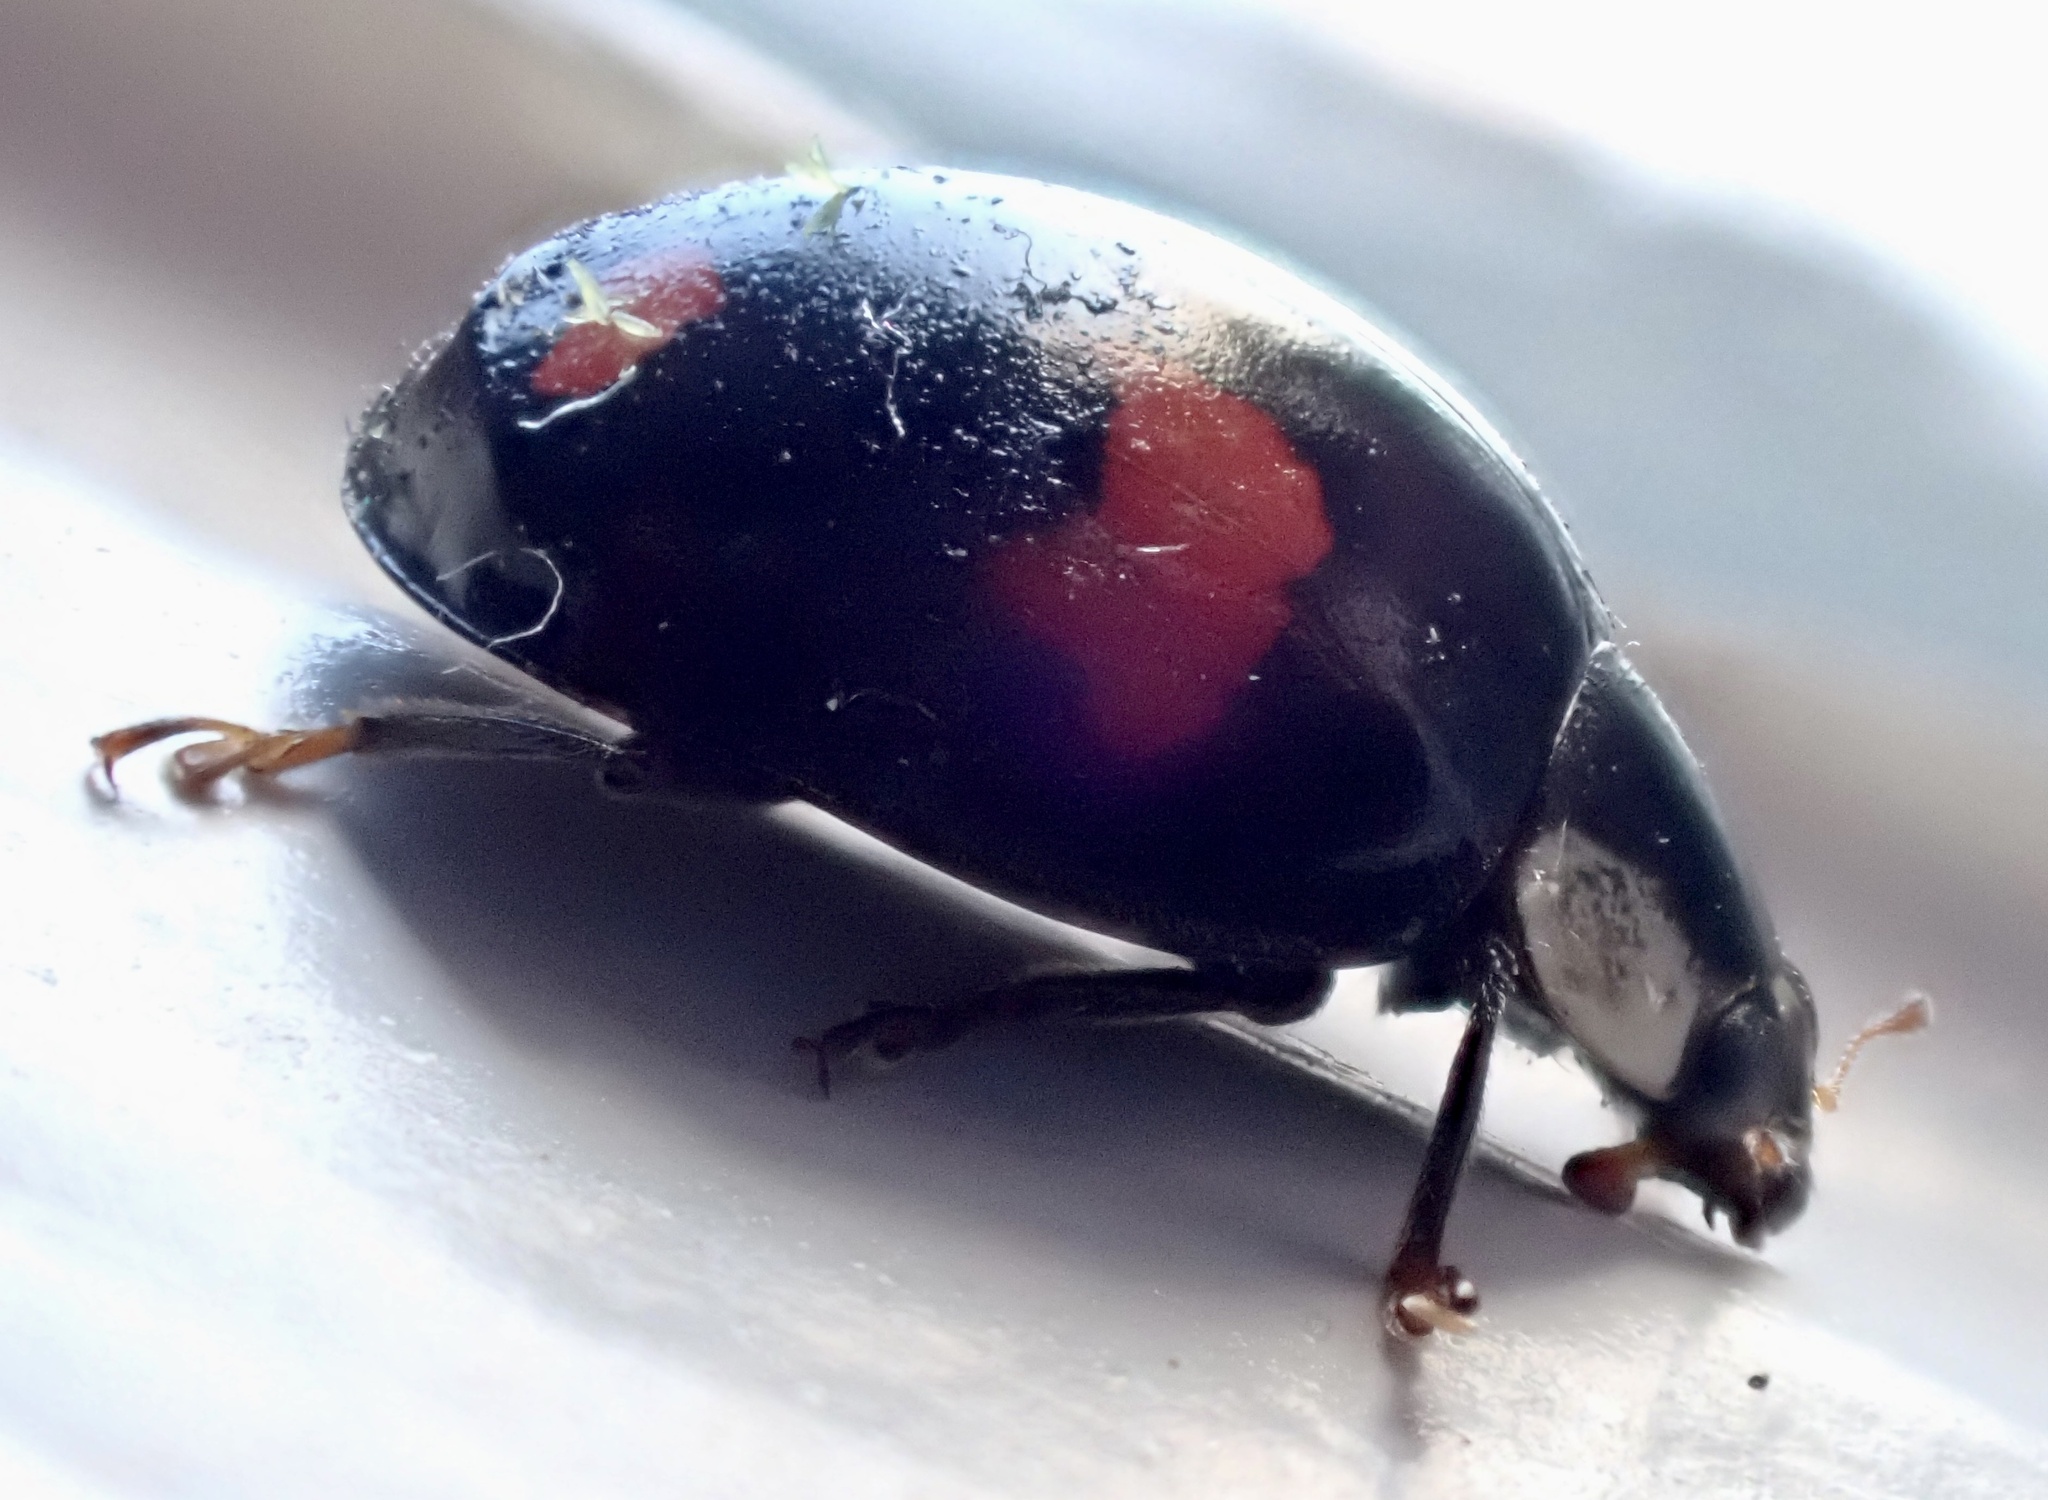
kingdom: Animalia
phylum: Arthropoda
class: Insecta
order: Coleoptera
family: Coccinellidae
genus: Harmonia
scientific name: Harmonia axyridis
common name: Harlequin ladybird
